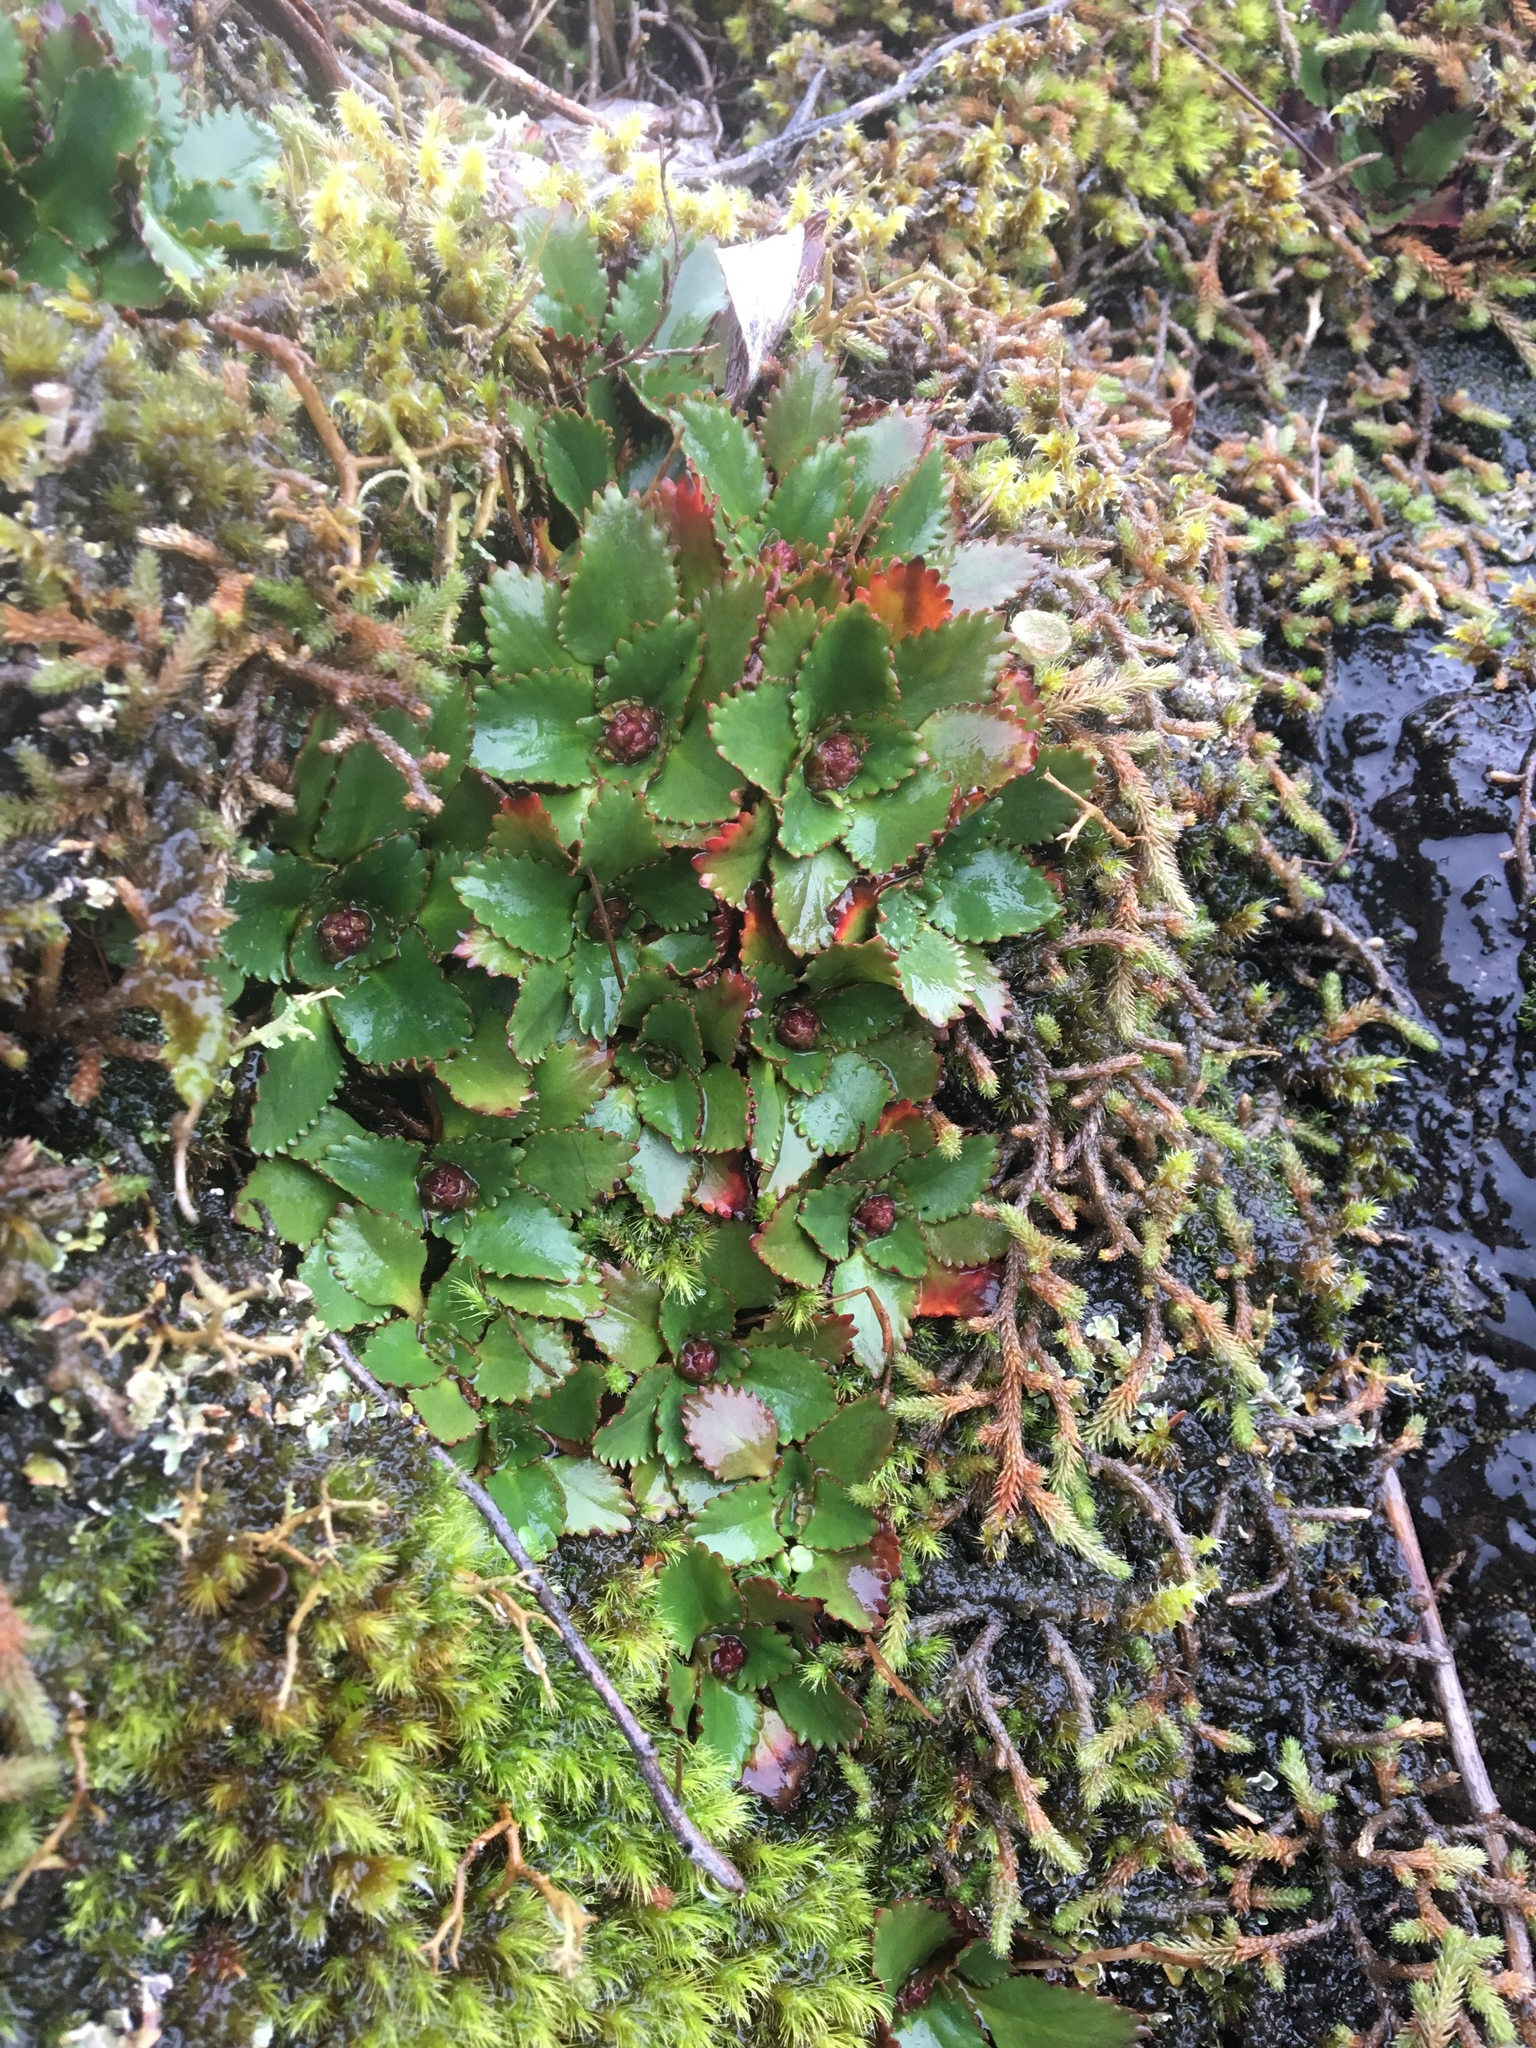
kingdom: Plantae
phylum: Tracheophyta
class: Magnoliopsida
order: Saxifragales
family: Saxifragaceae
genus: Micranthes
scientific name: Micranthes rufidula
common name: Rustyhair saxifrage
